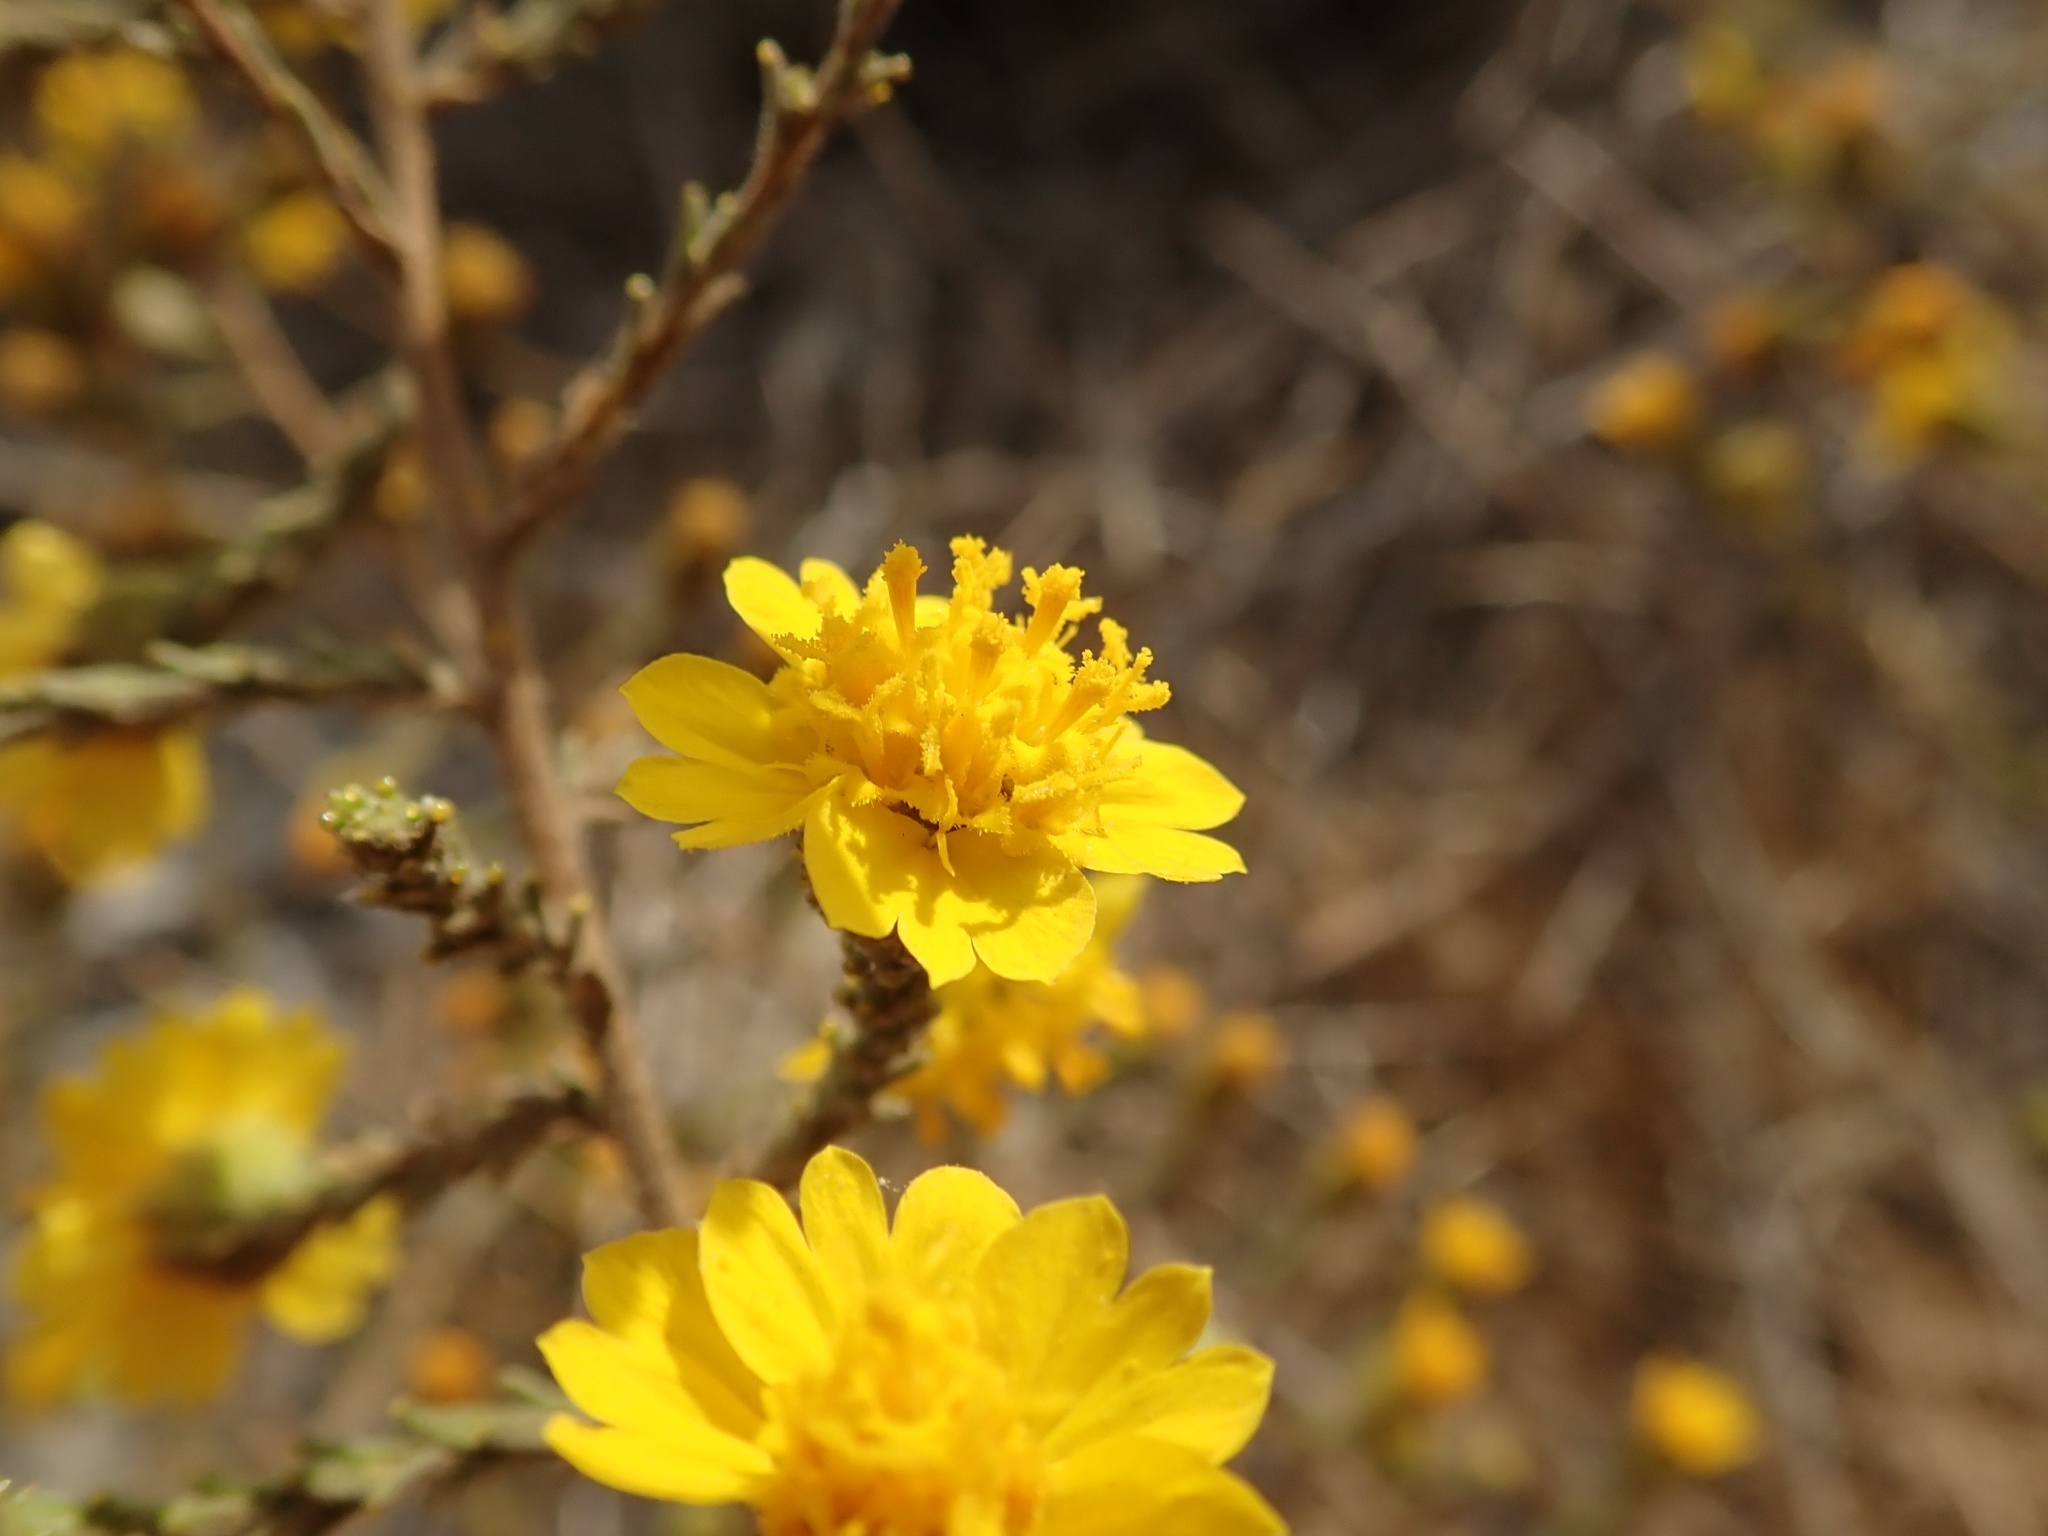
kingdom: Plantae
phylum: Tracheophyta
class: Magnoliopsida
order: Asterales
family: Asteraceae
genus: Holocarpha
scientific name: Holocarpha heermannii
